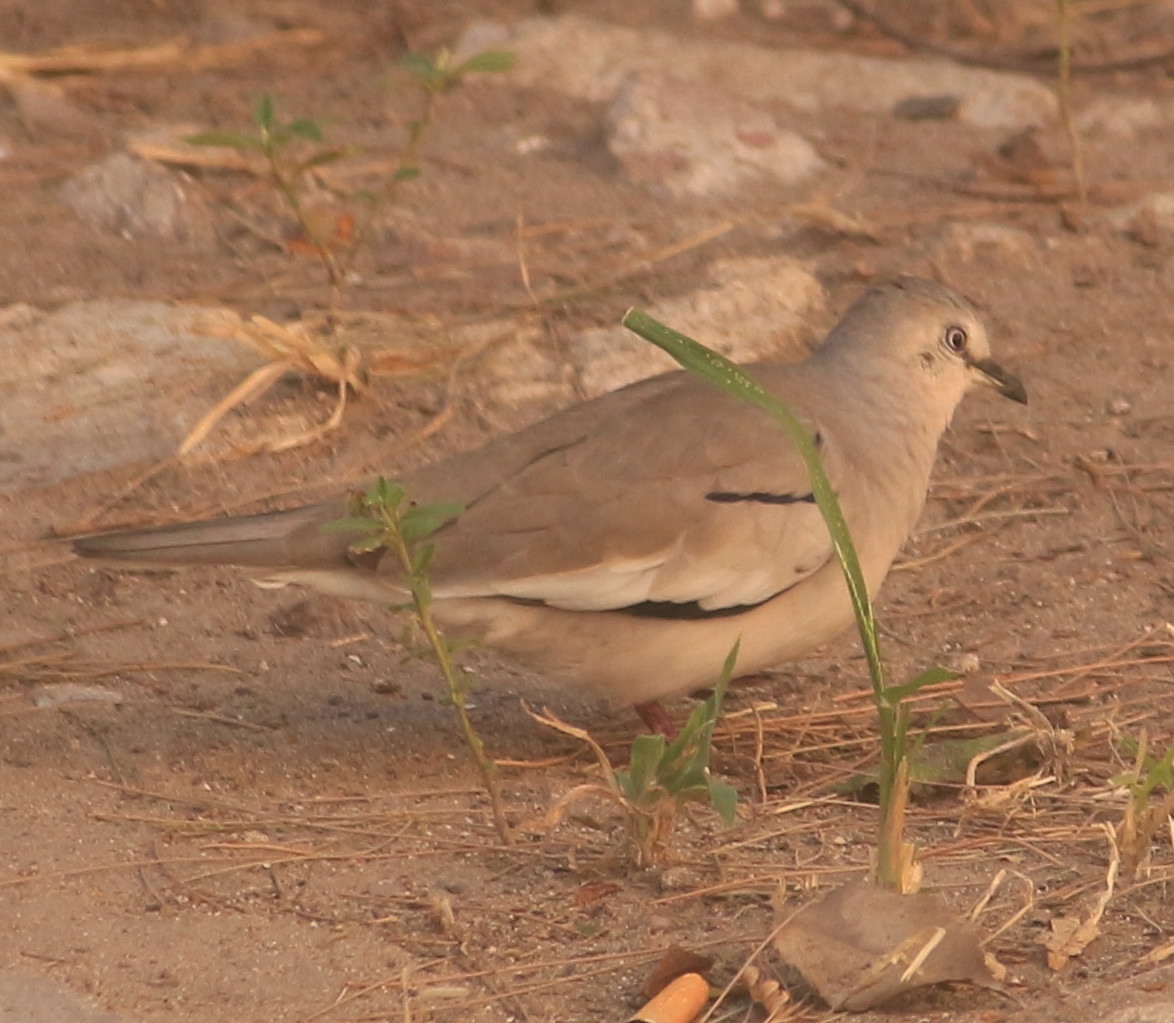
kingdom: Animalia
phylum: Chordata
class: Aves
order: Columbiformes
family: Columbidae
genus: Columbina
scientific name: Columbina picui
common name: Picui ground dove
